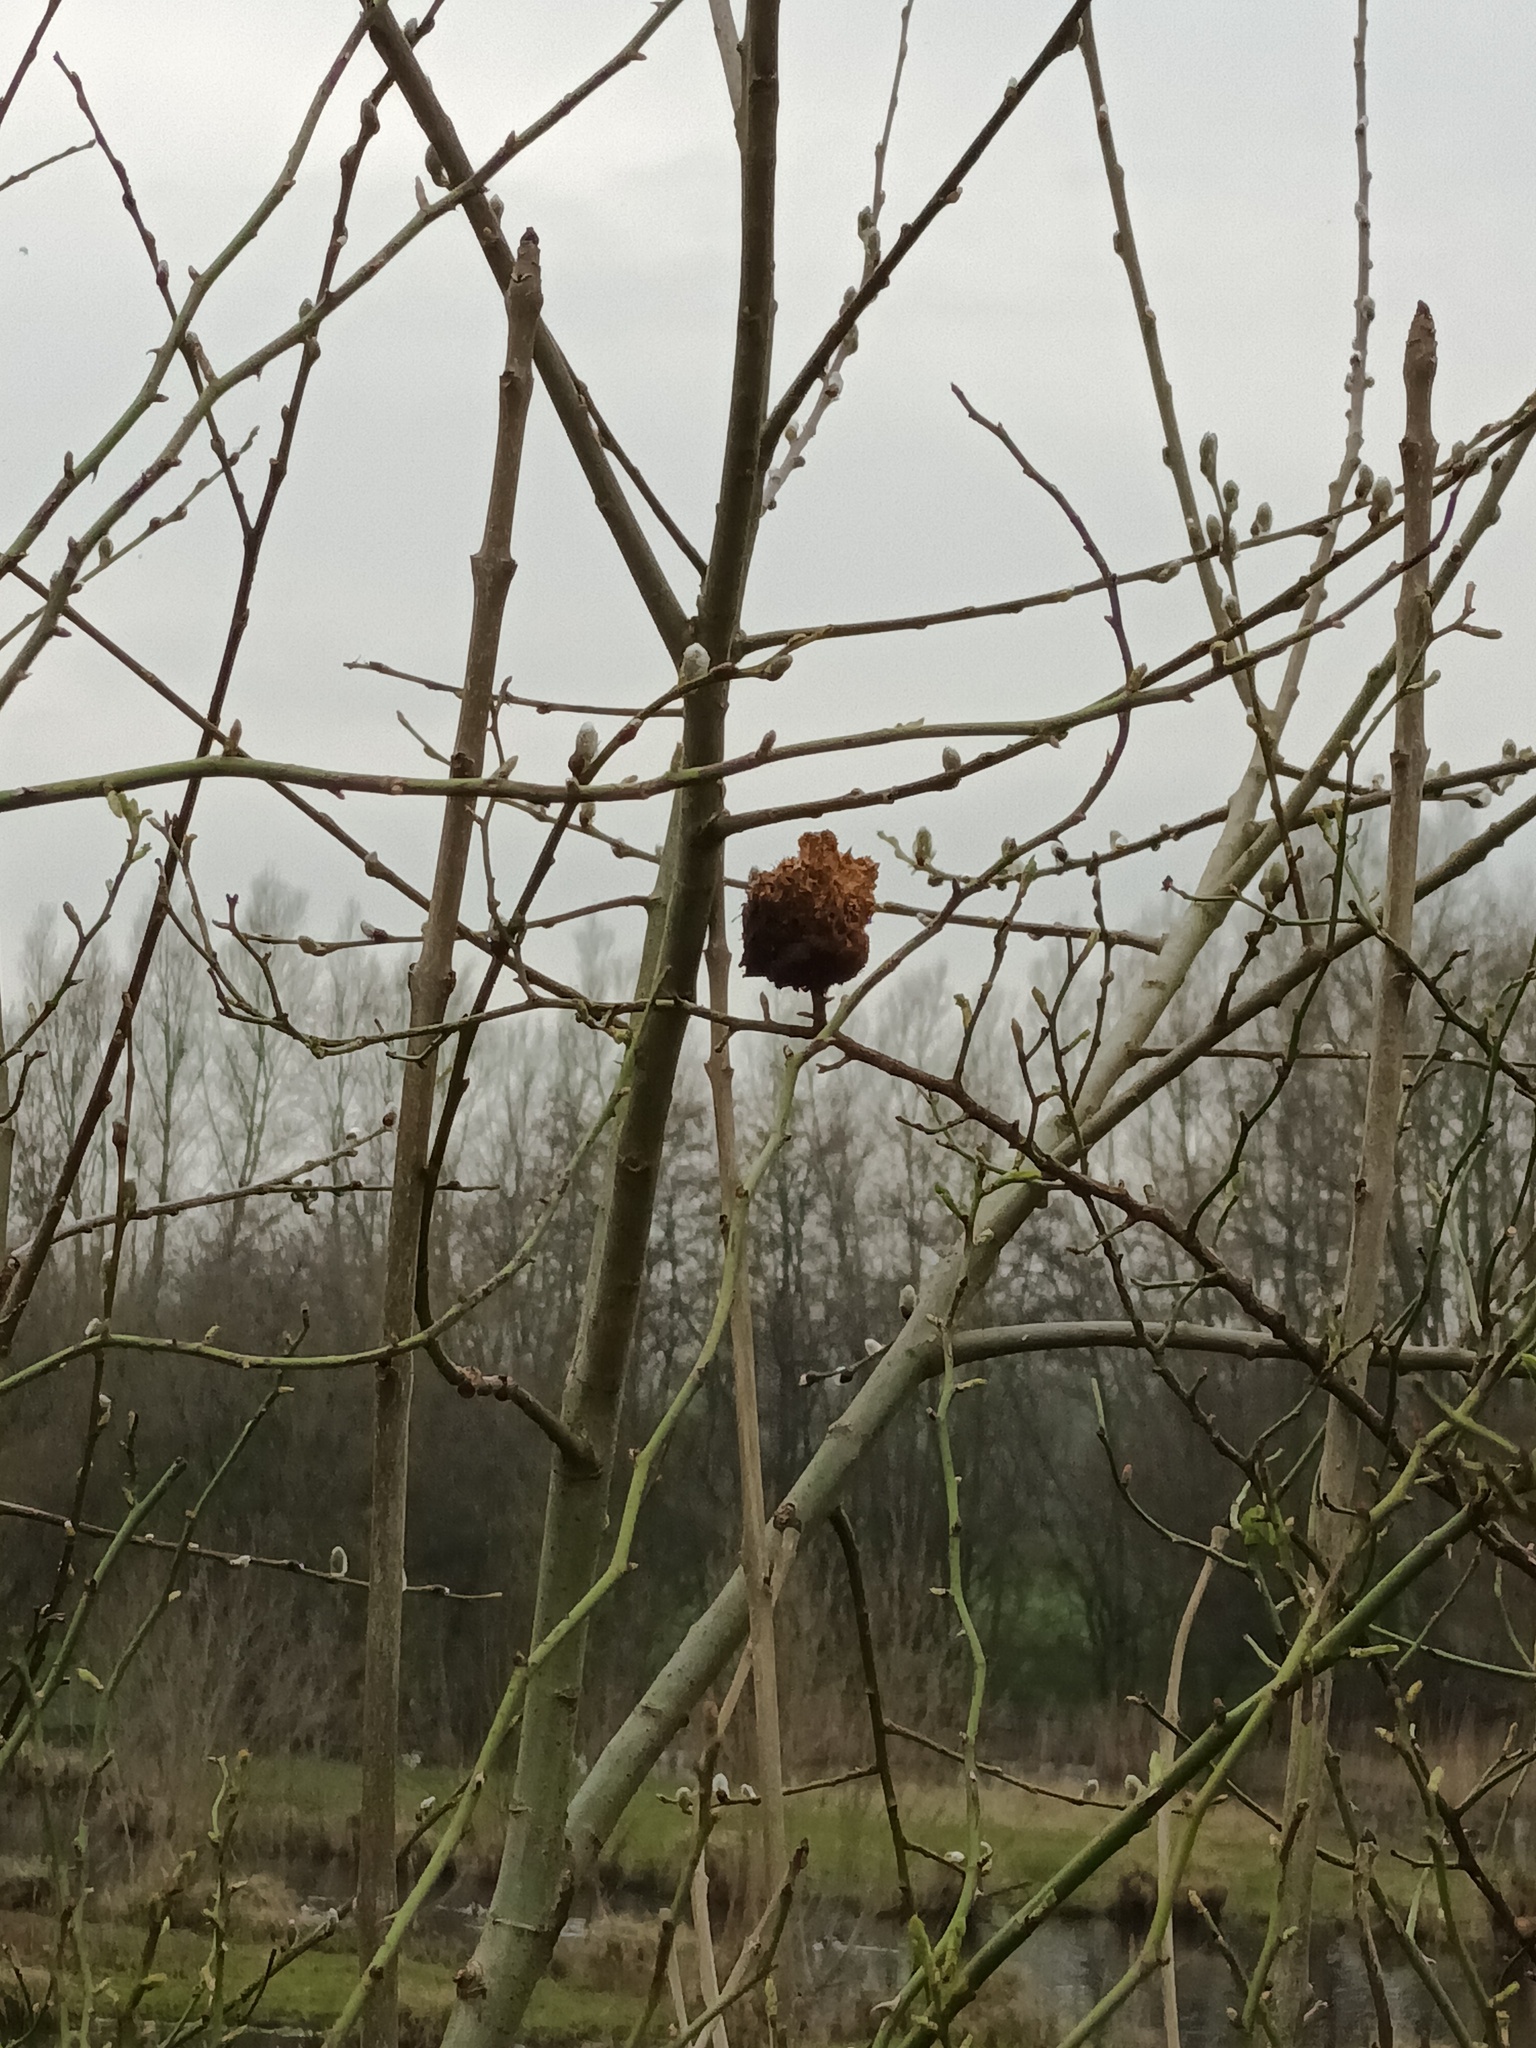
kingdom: Animalia
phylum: Arthropoda
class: Insecta
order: Hymenoptera
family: Cynipidae
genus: Diplolepis
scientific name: Diplolepis rosae
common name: Bedeguar gall
